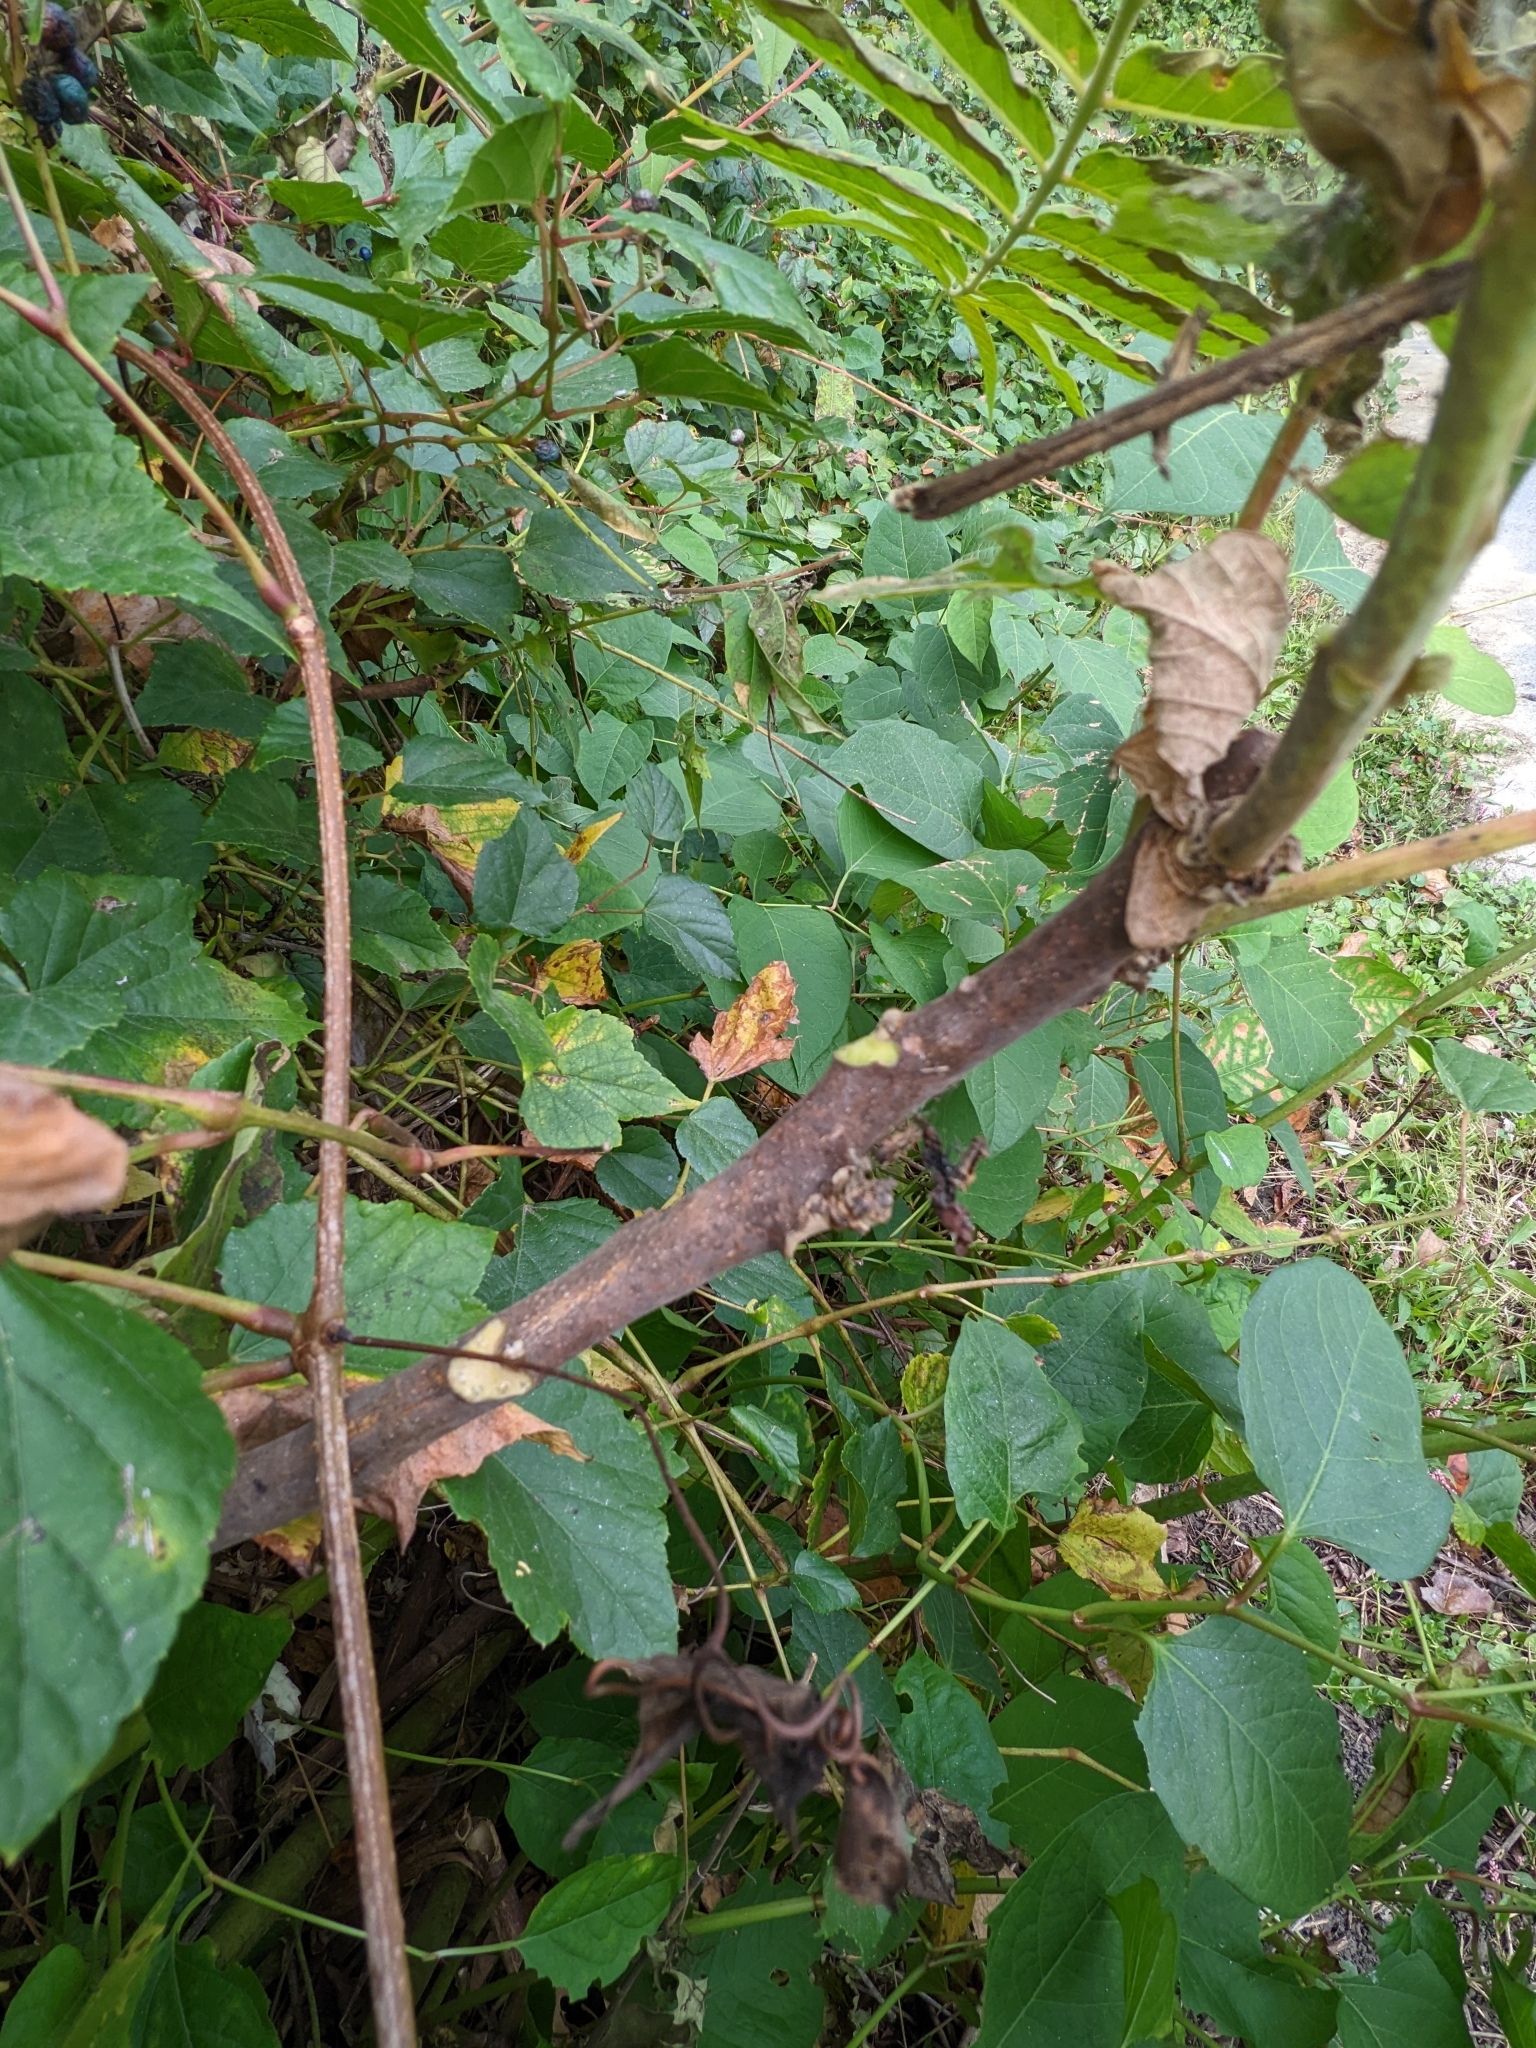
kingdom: Plantae
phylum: Tracheophyta
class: Magnoliopsida
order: Sapindales
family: Anacardiaceae
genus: Rhus
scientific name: Rhus glabra
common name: Scarlet sumac
